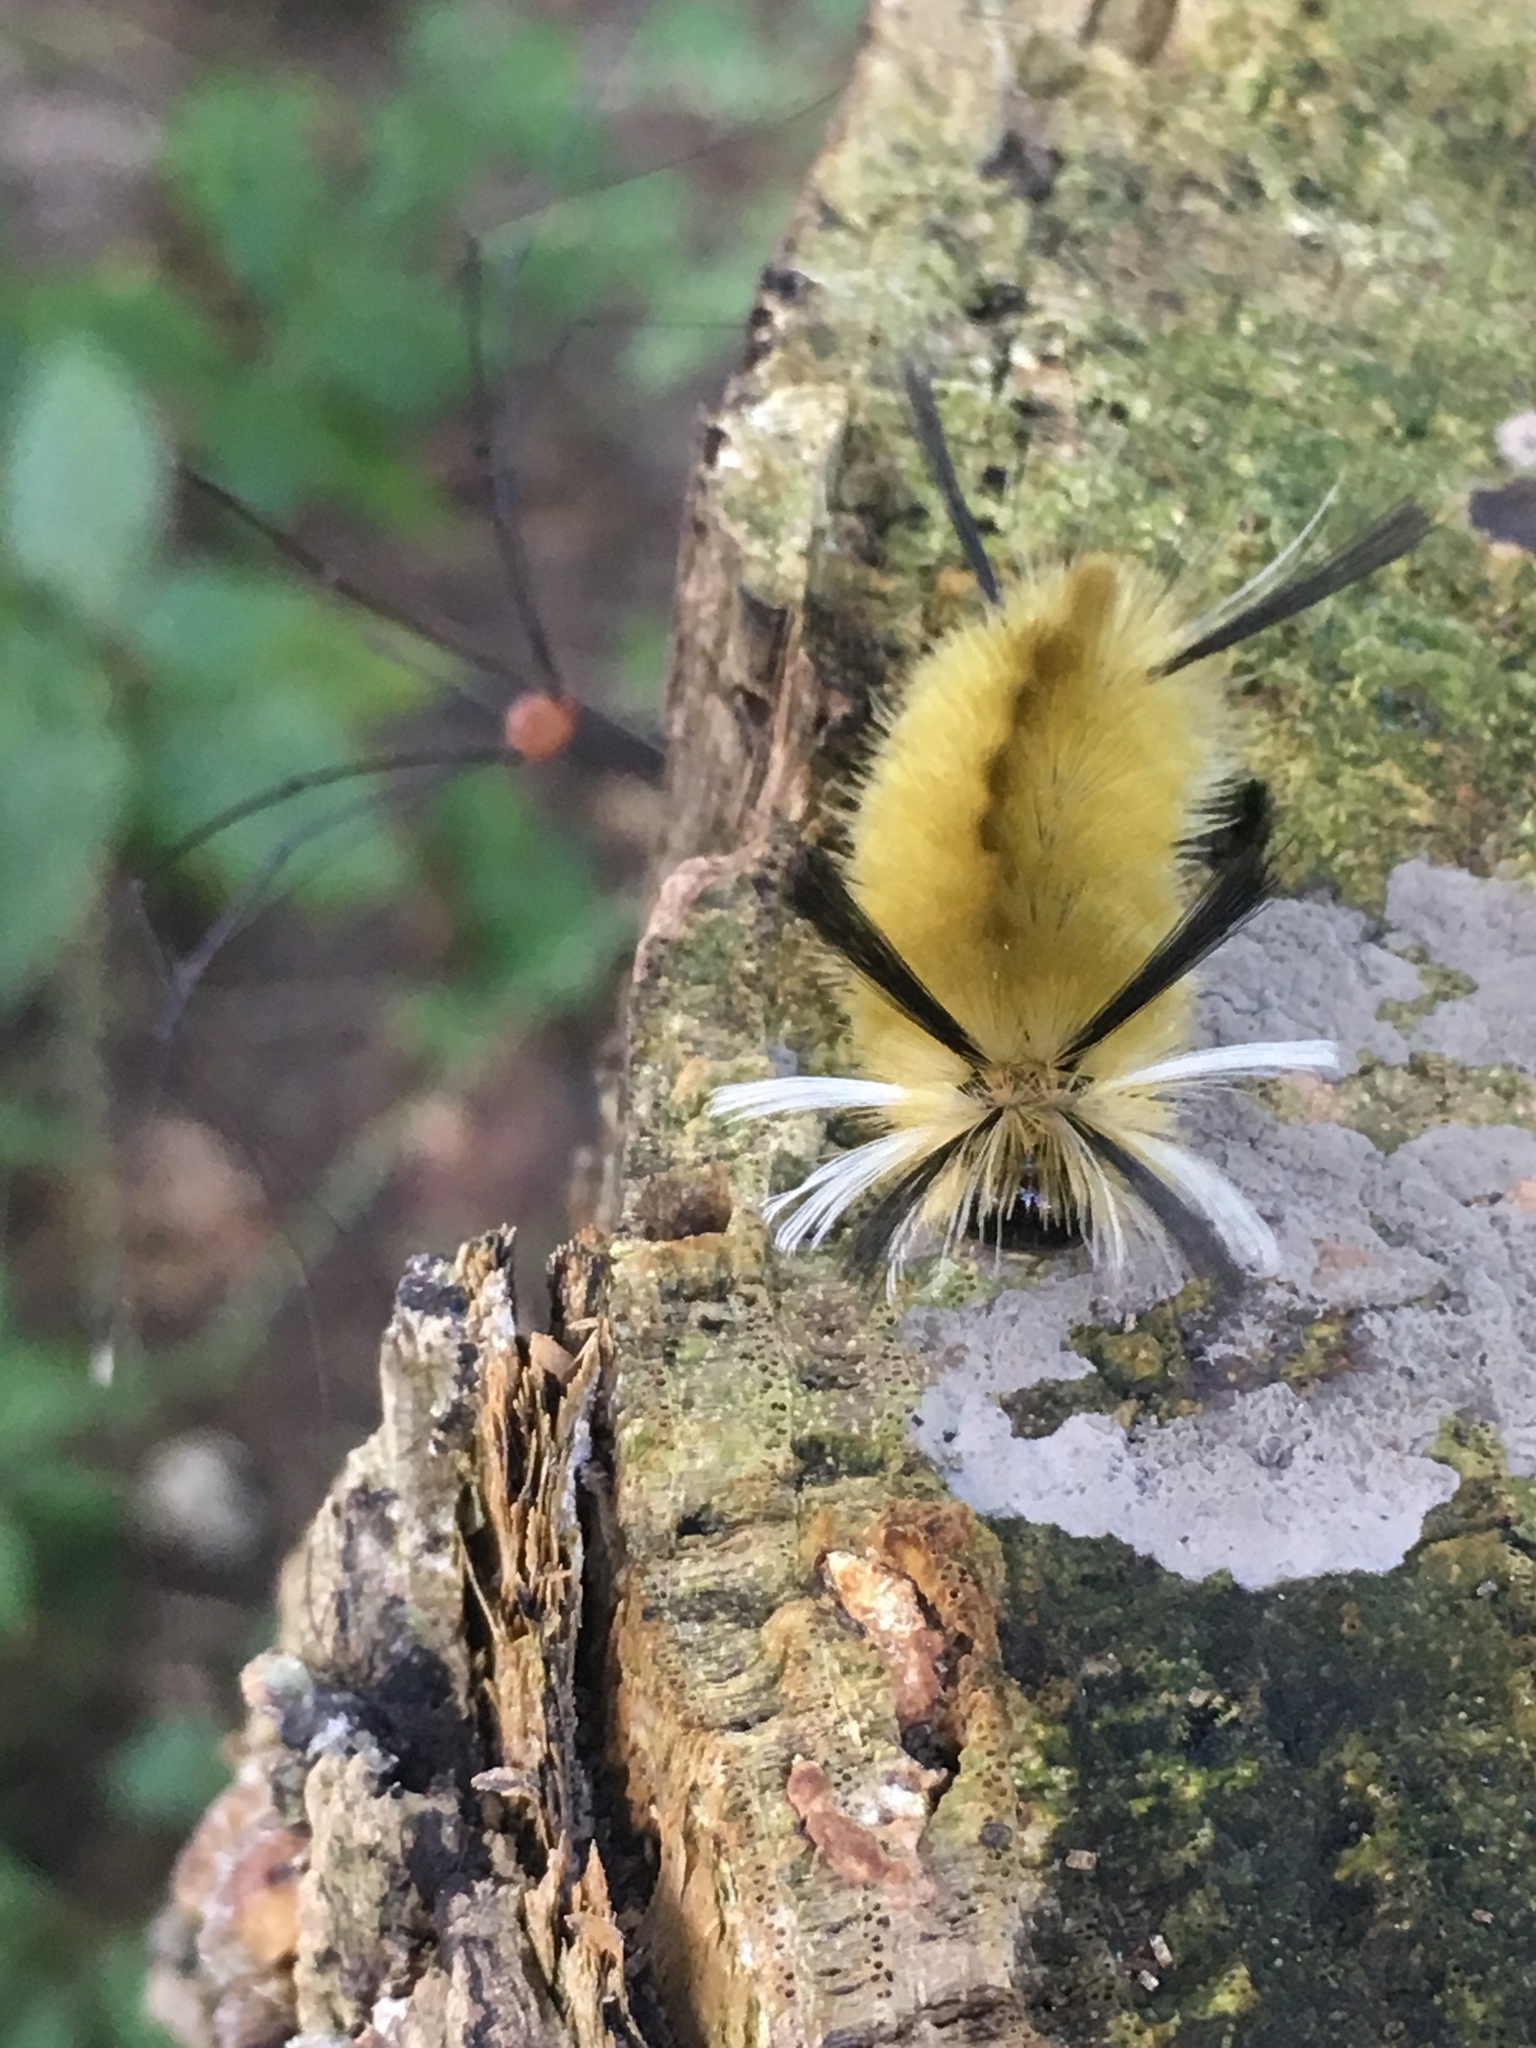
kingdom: Animalia
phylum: Arthropoda
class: Insecta
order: Lepidoptera
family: Erebidae
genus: Halysidota
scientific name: Halysidota tessellaris
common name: Banded tussock moth
